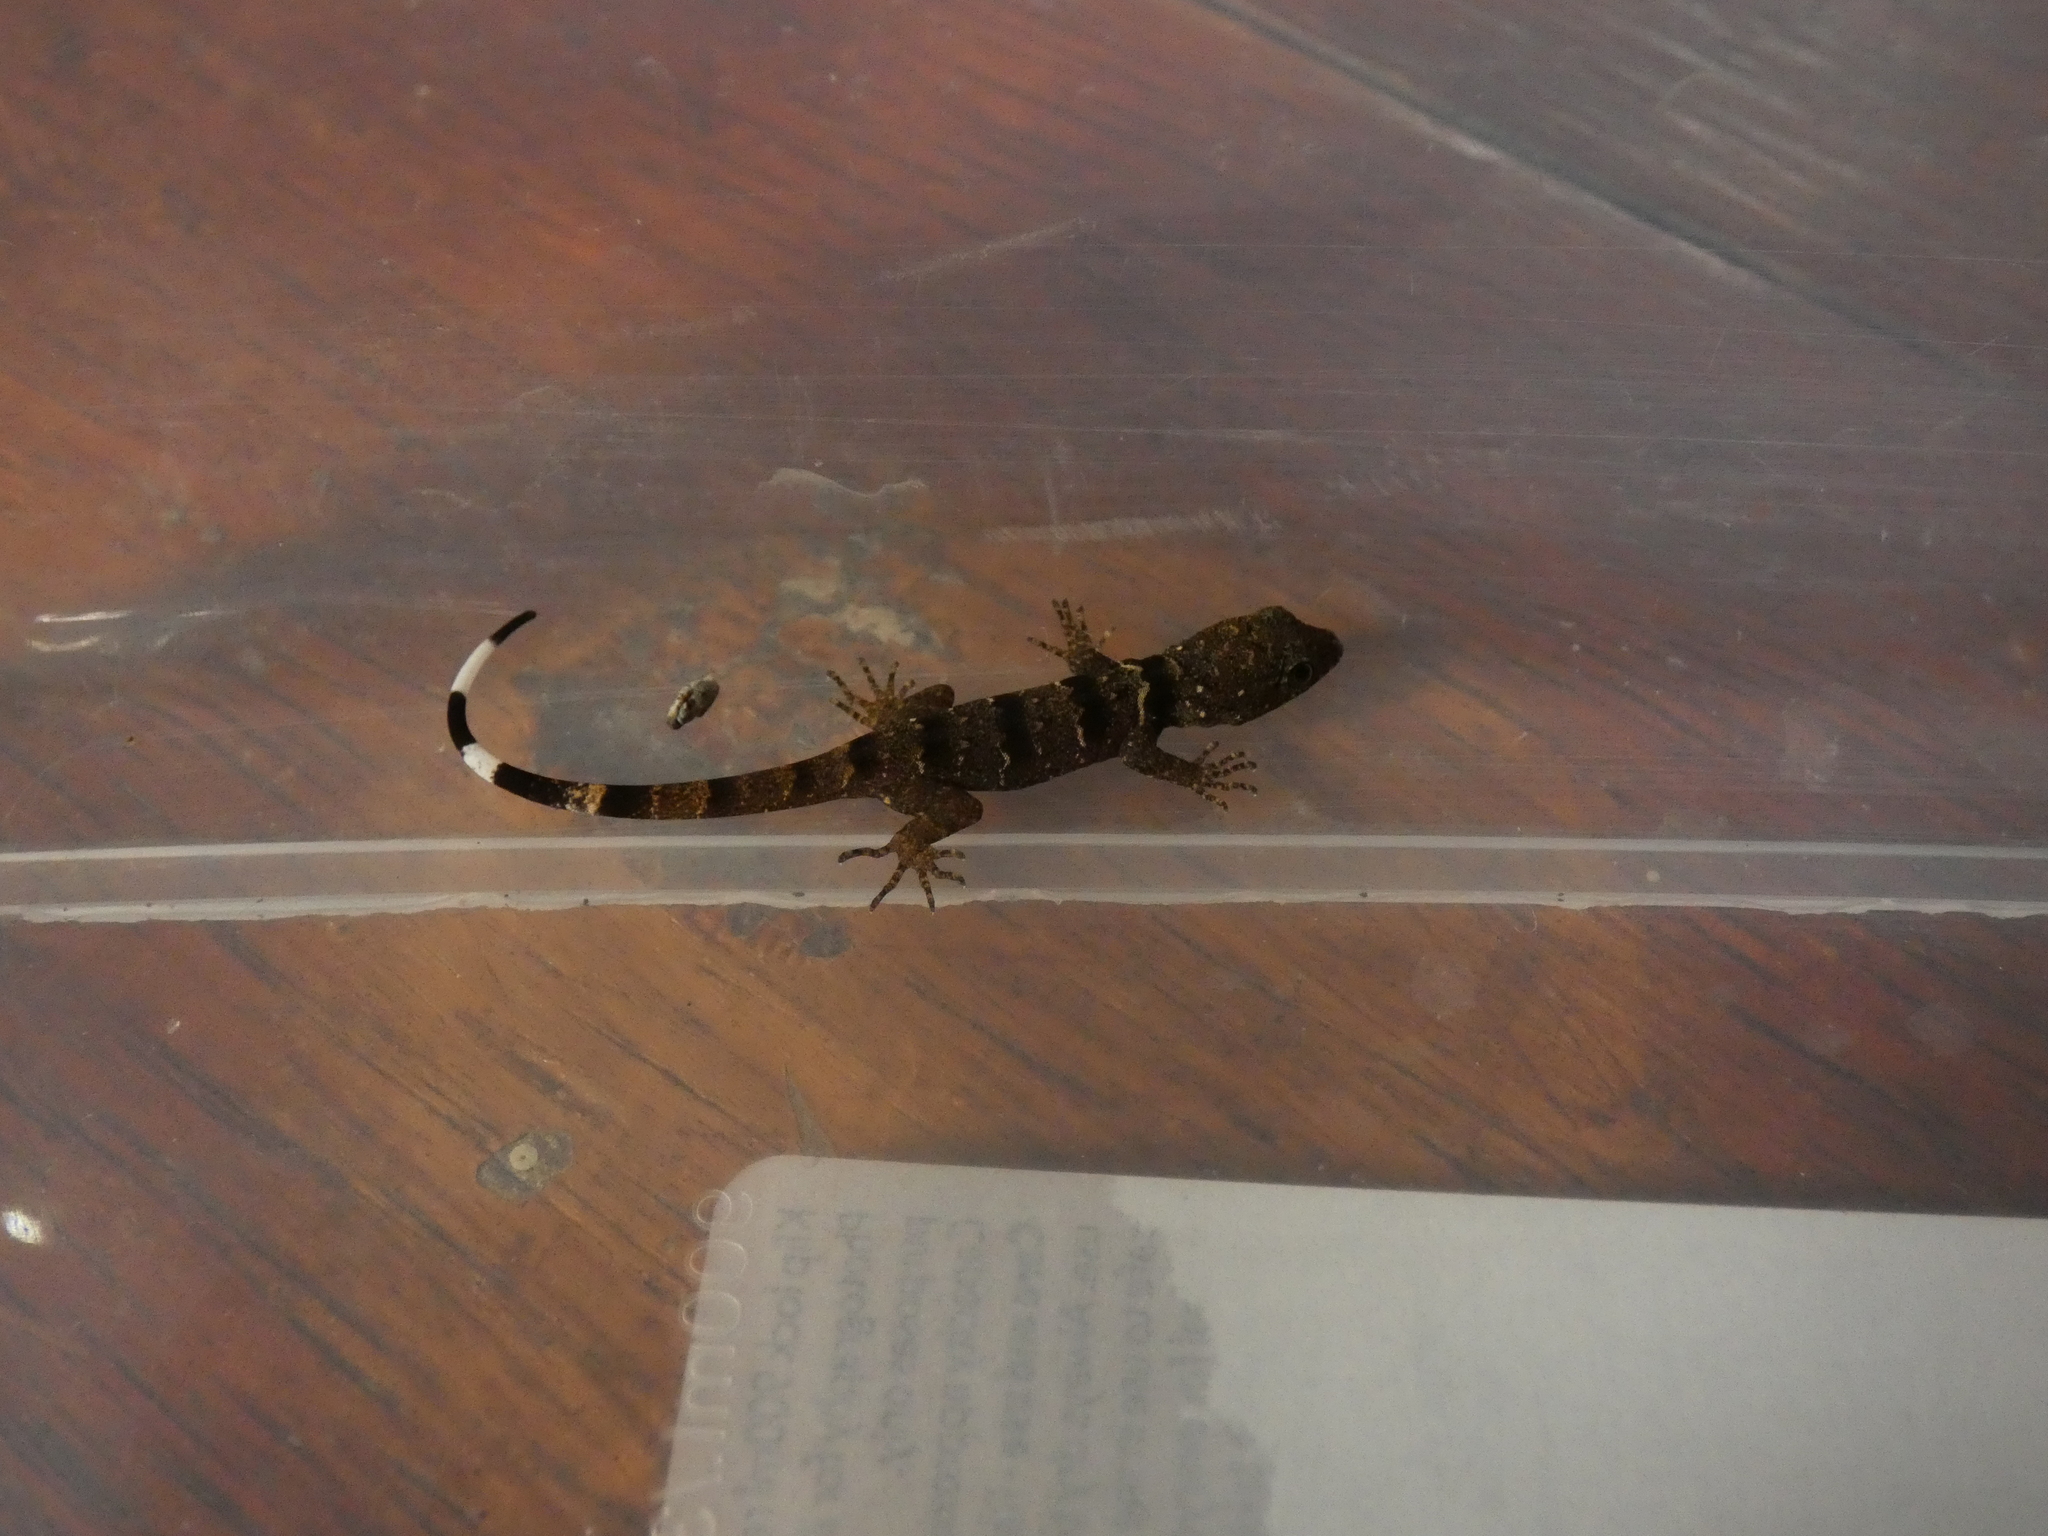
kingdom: Animalia
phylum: Chordata
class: Squamata
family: Sphaerodactylidae
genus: Gonatodes
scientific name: Gonatodes concinnatus
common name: O'shaughnessy's gecko
